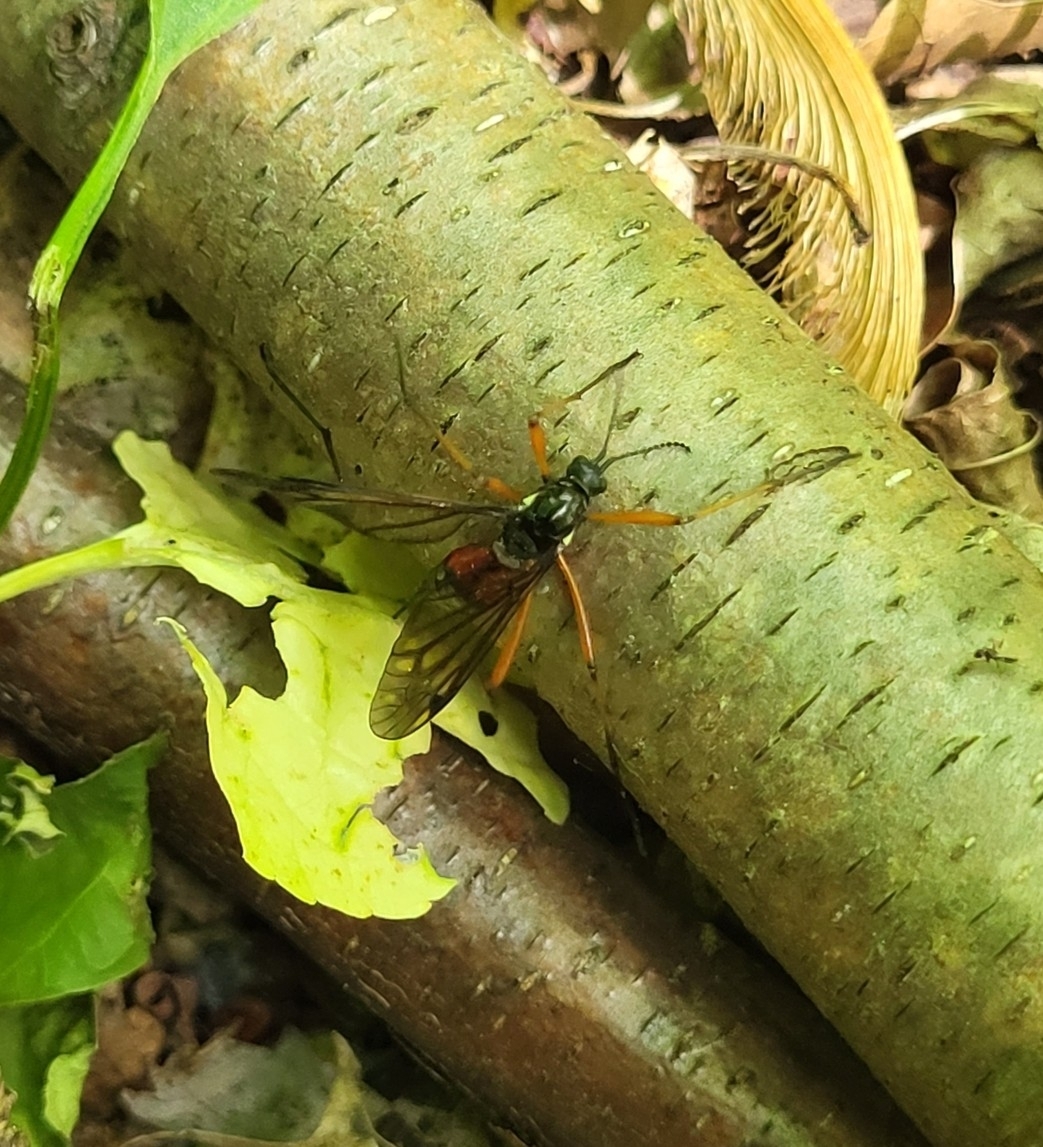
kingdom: Animalia
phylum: Arthropoda
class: Insecta
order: Diptera
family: Tipulidae
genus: Tanyptera
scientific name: Tanyptera dorsalis
